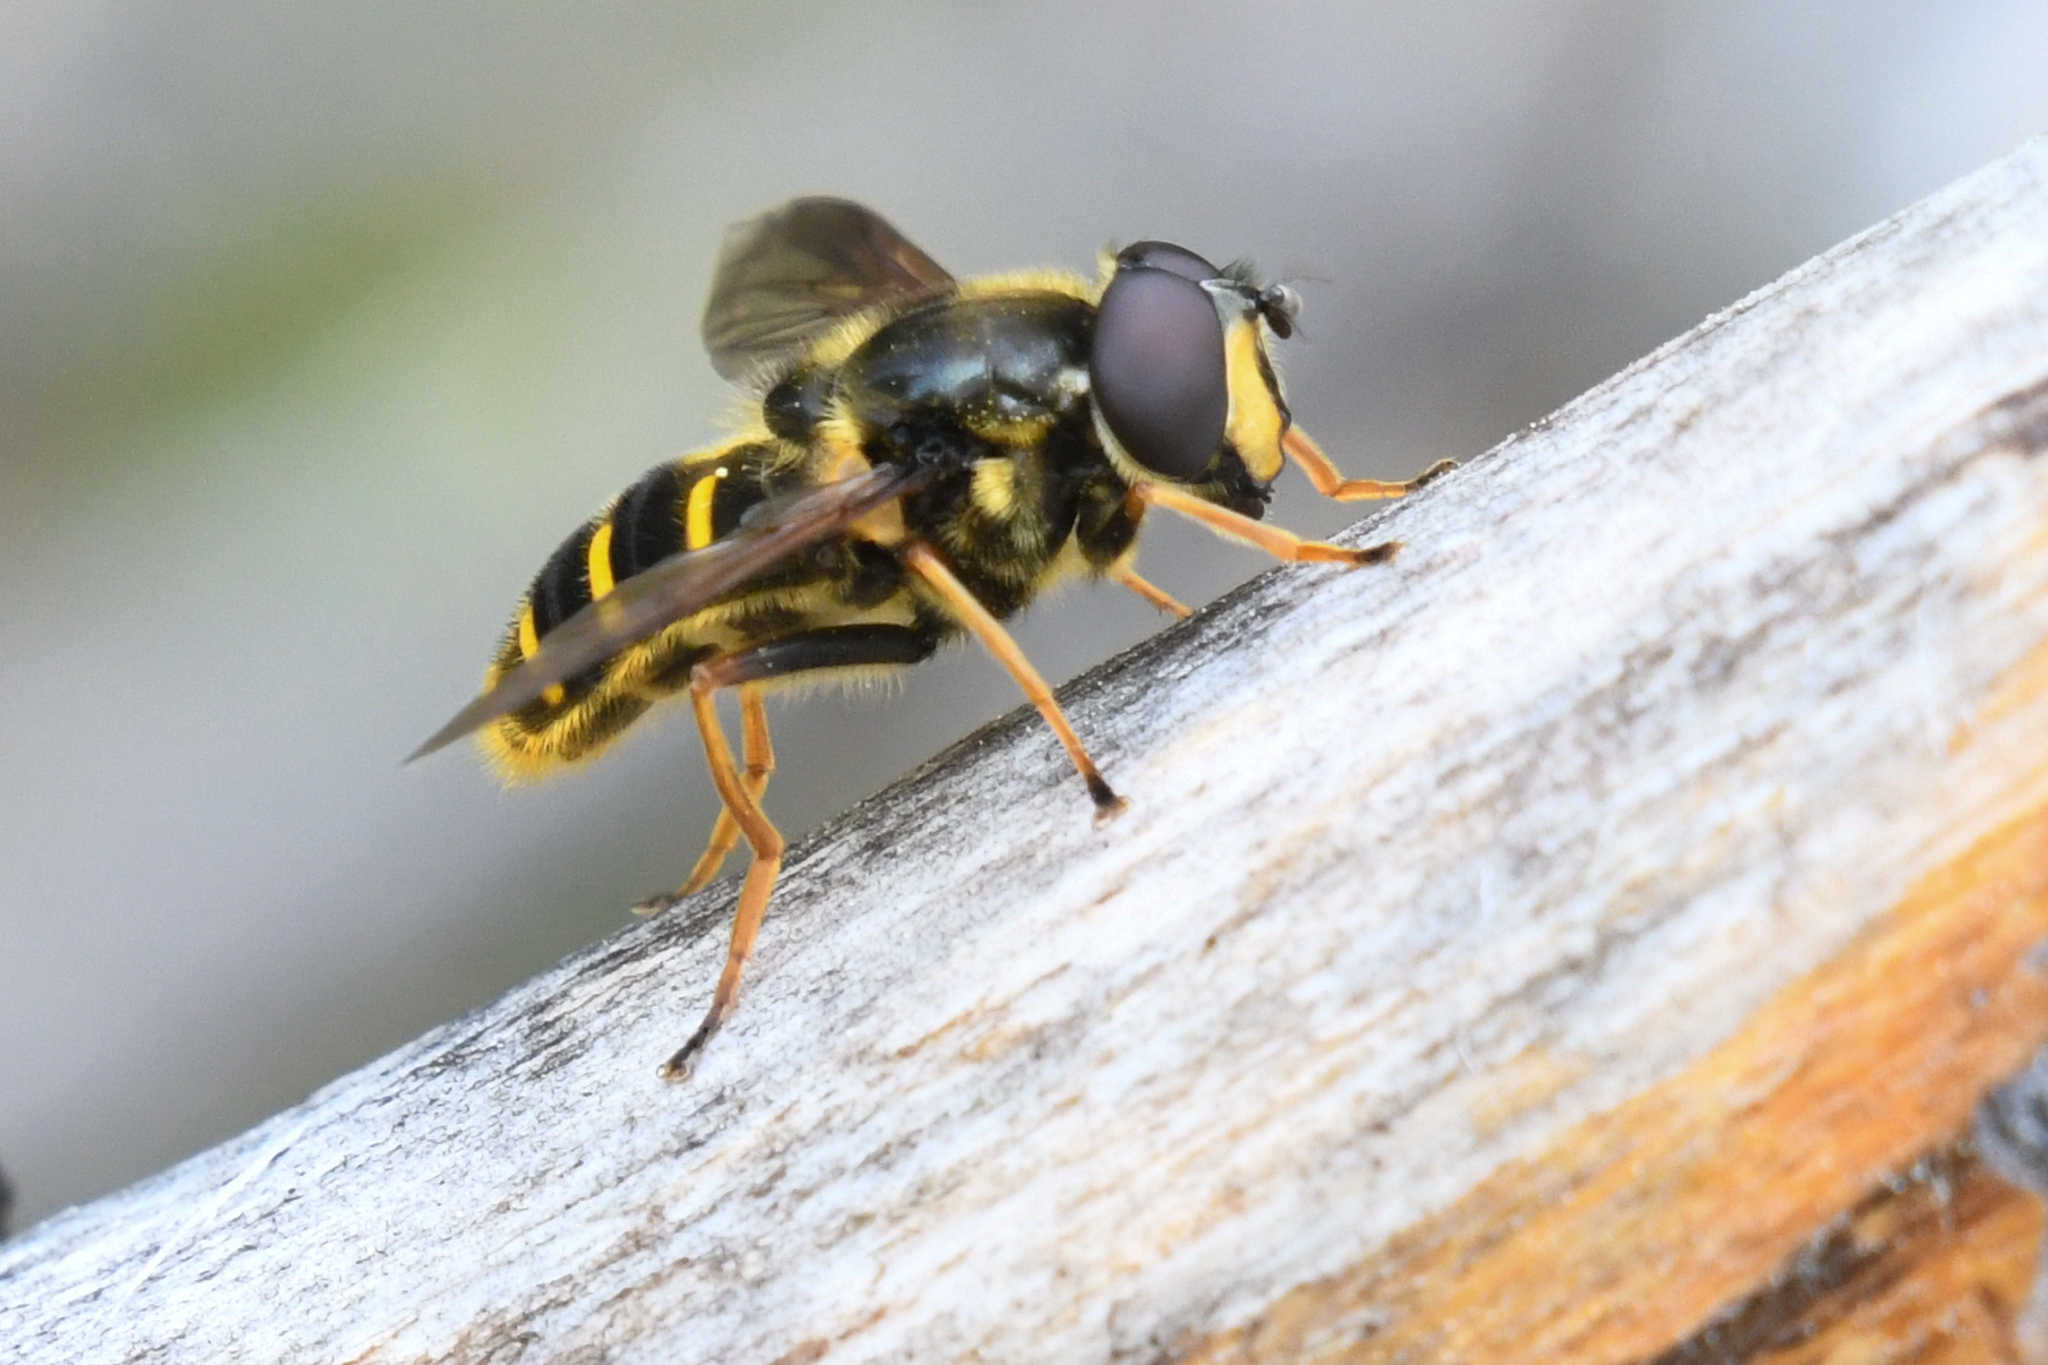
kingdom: Animalia
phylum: Arthropoda
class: Insecta
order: Diptera
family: Syrphidae
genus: Sericomyia
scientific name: Sericomyia chalcopyga
